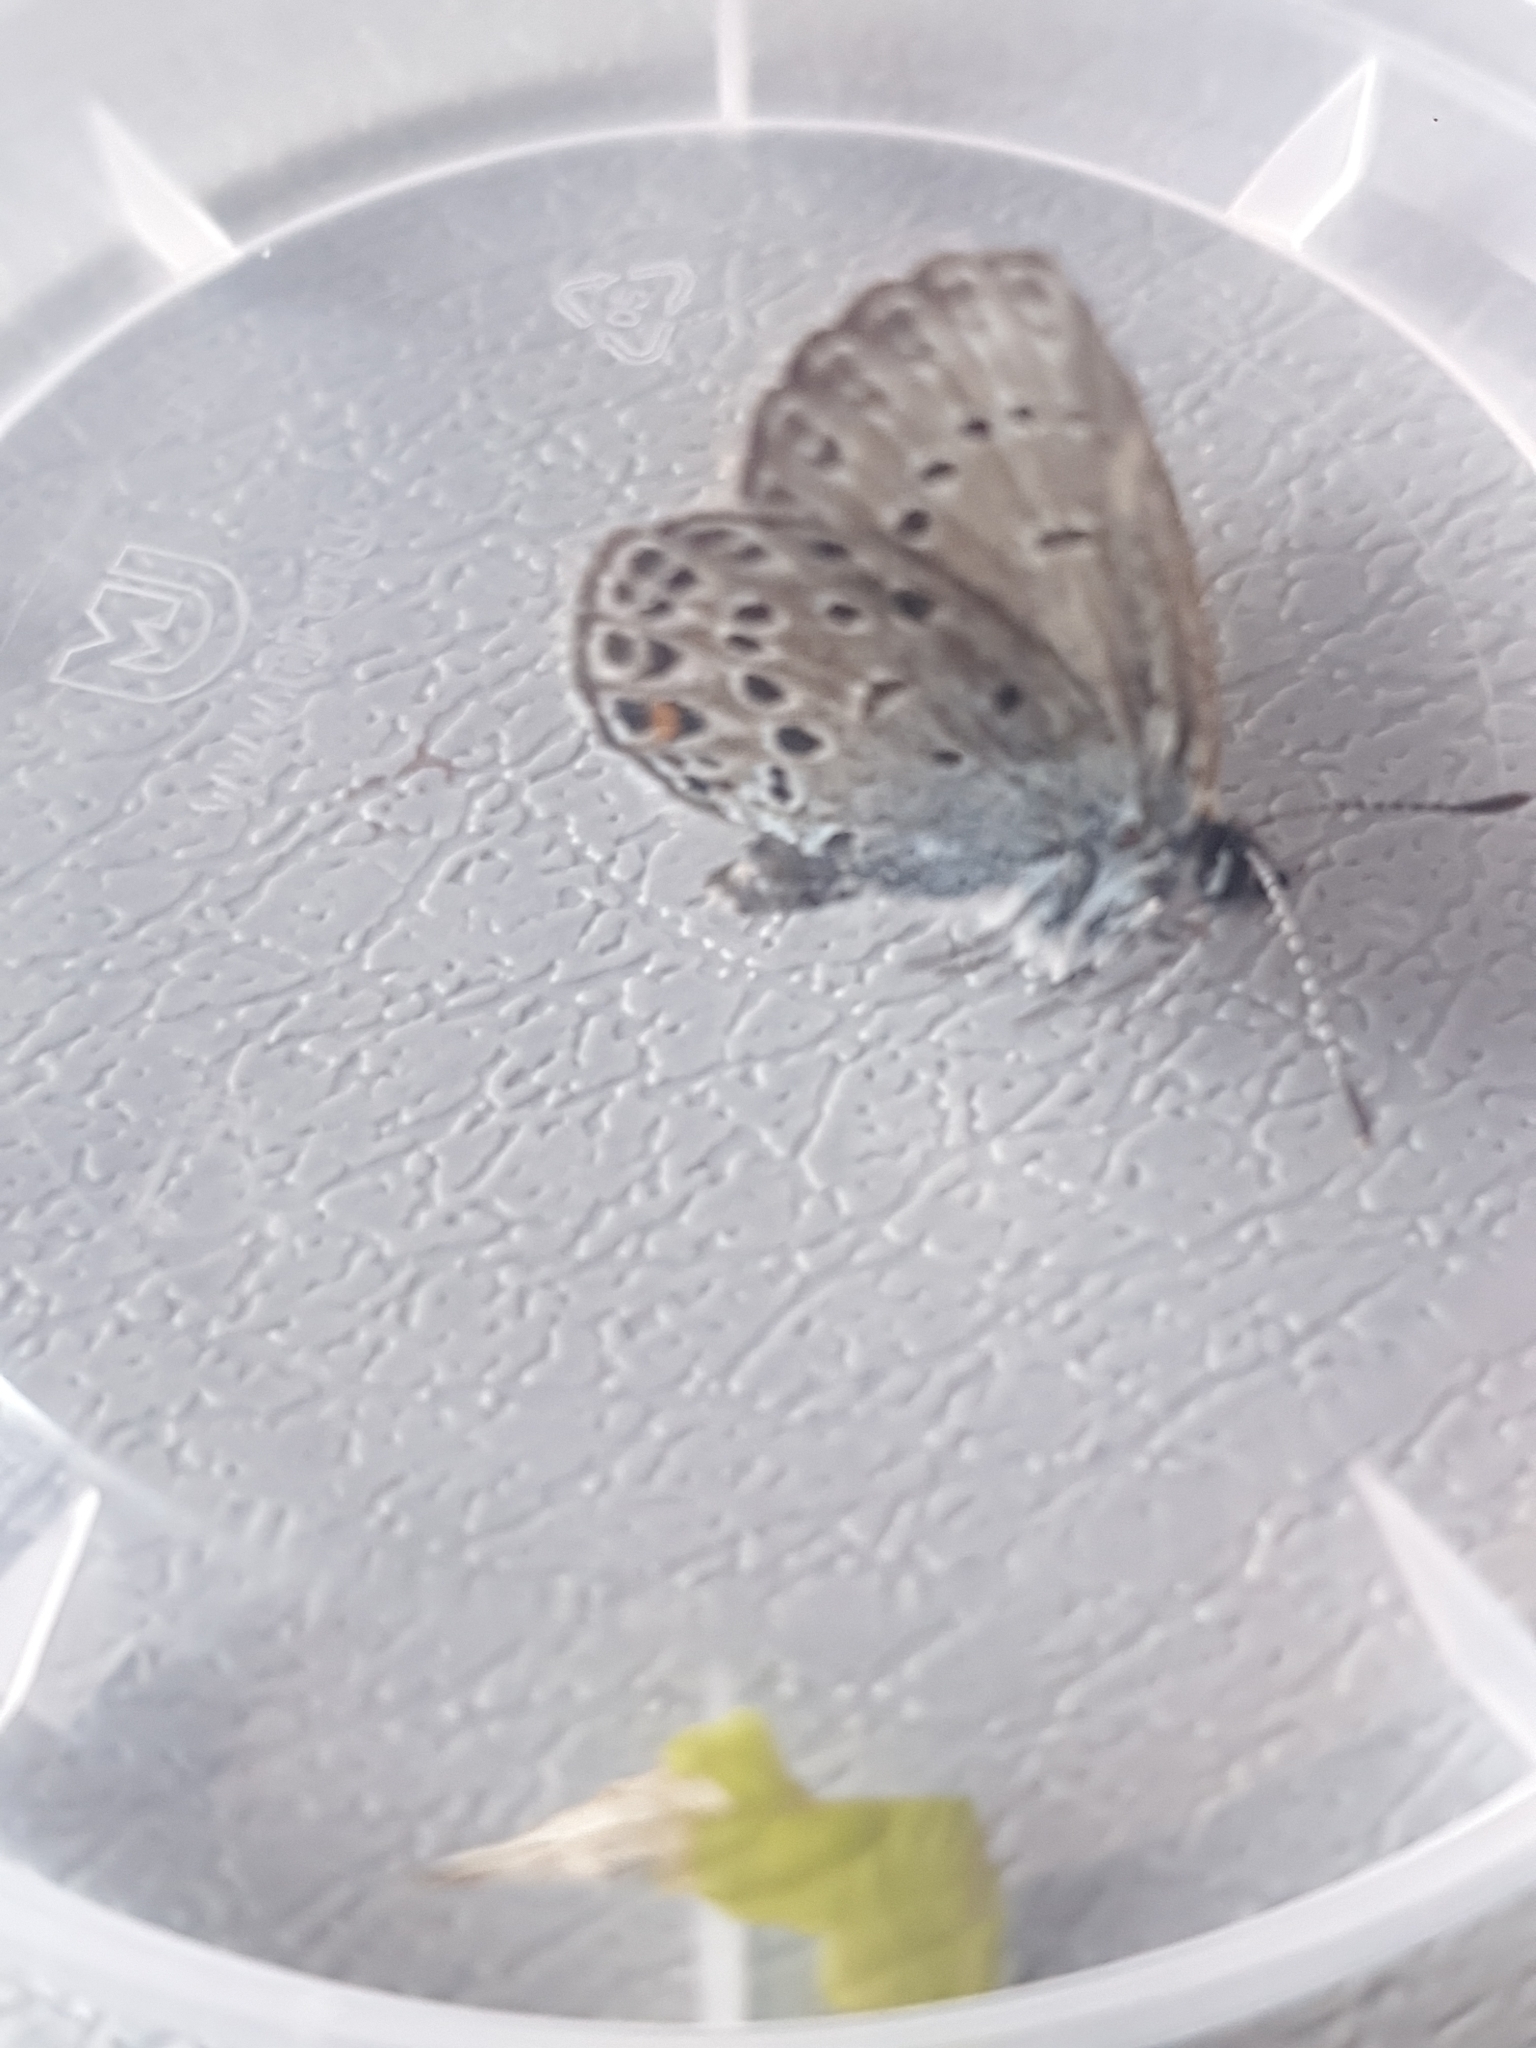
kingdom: Animalia
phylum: Arthropoda
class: Insecta
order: Lepidoptera
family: Lycaenidae
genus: Vacciniina
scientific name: Vacciniina optilete
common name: Cranberry blue
